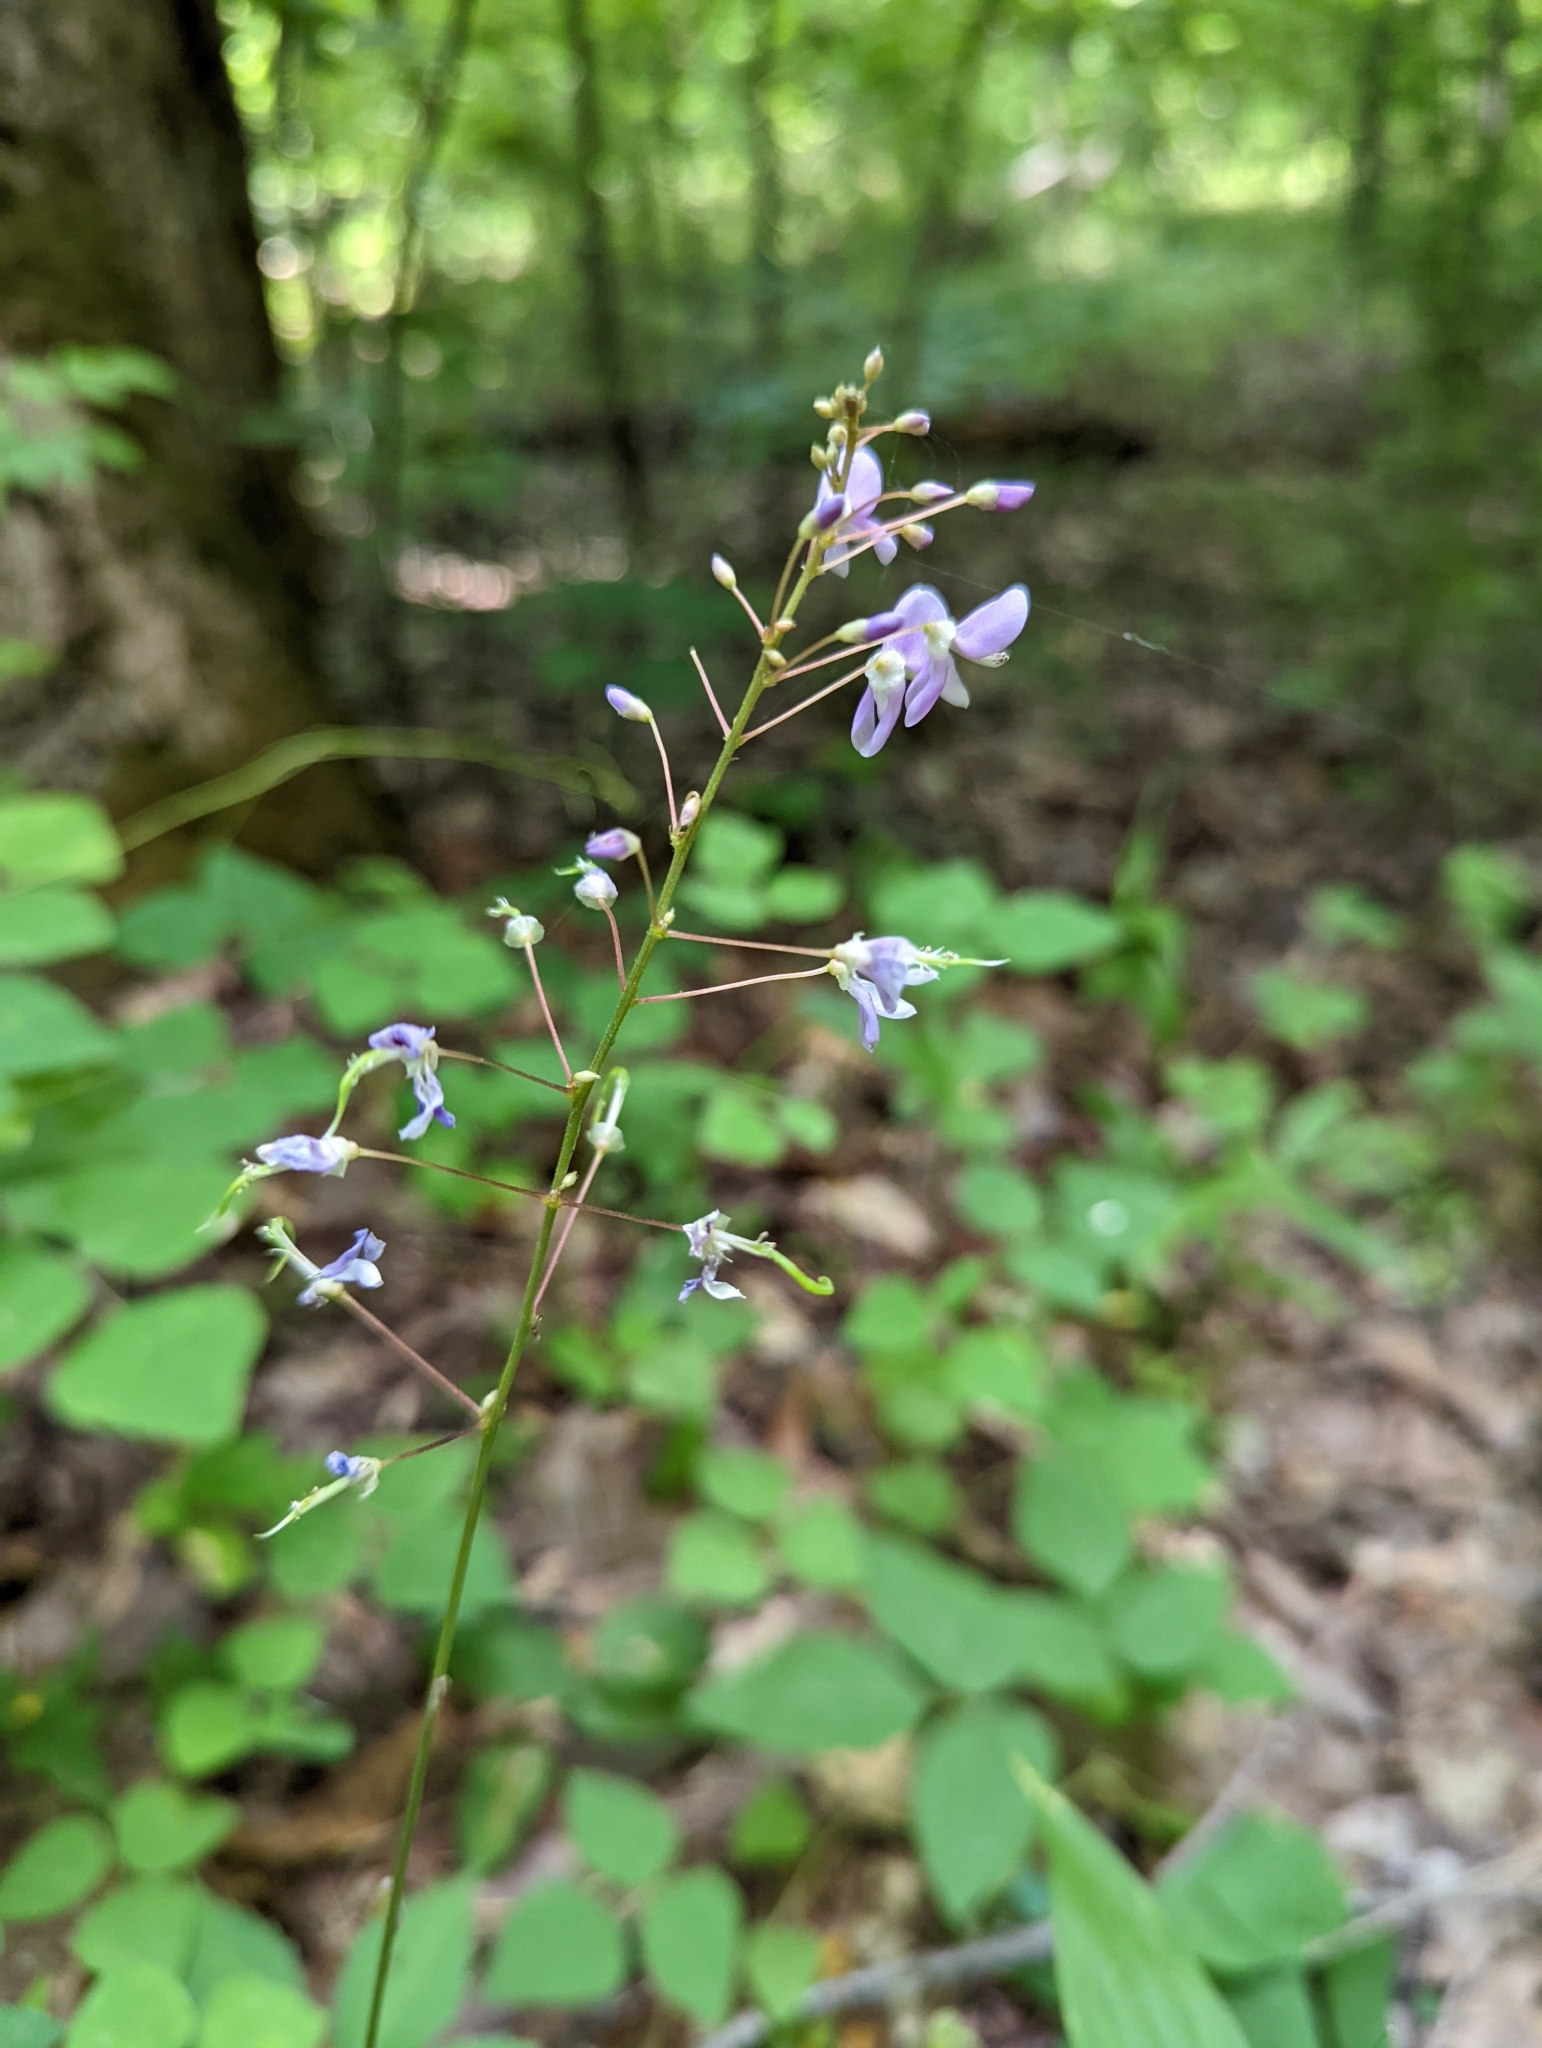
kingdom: Plantae
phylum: Tracheophyta
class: Magnoliopsida
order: Fabales
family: Fabaceae
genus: Hylodesmum
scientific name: Hylodesmum nudiflorum
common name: Bare-stemmed tick-trefoil
